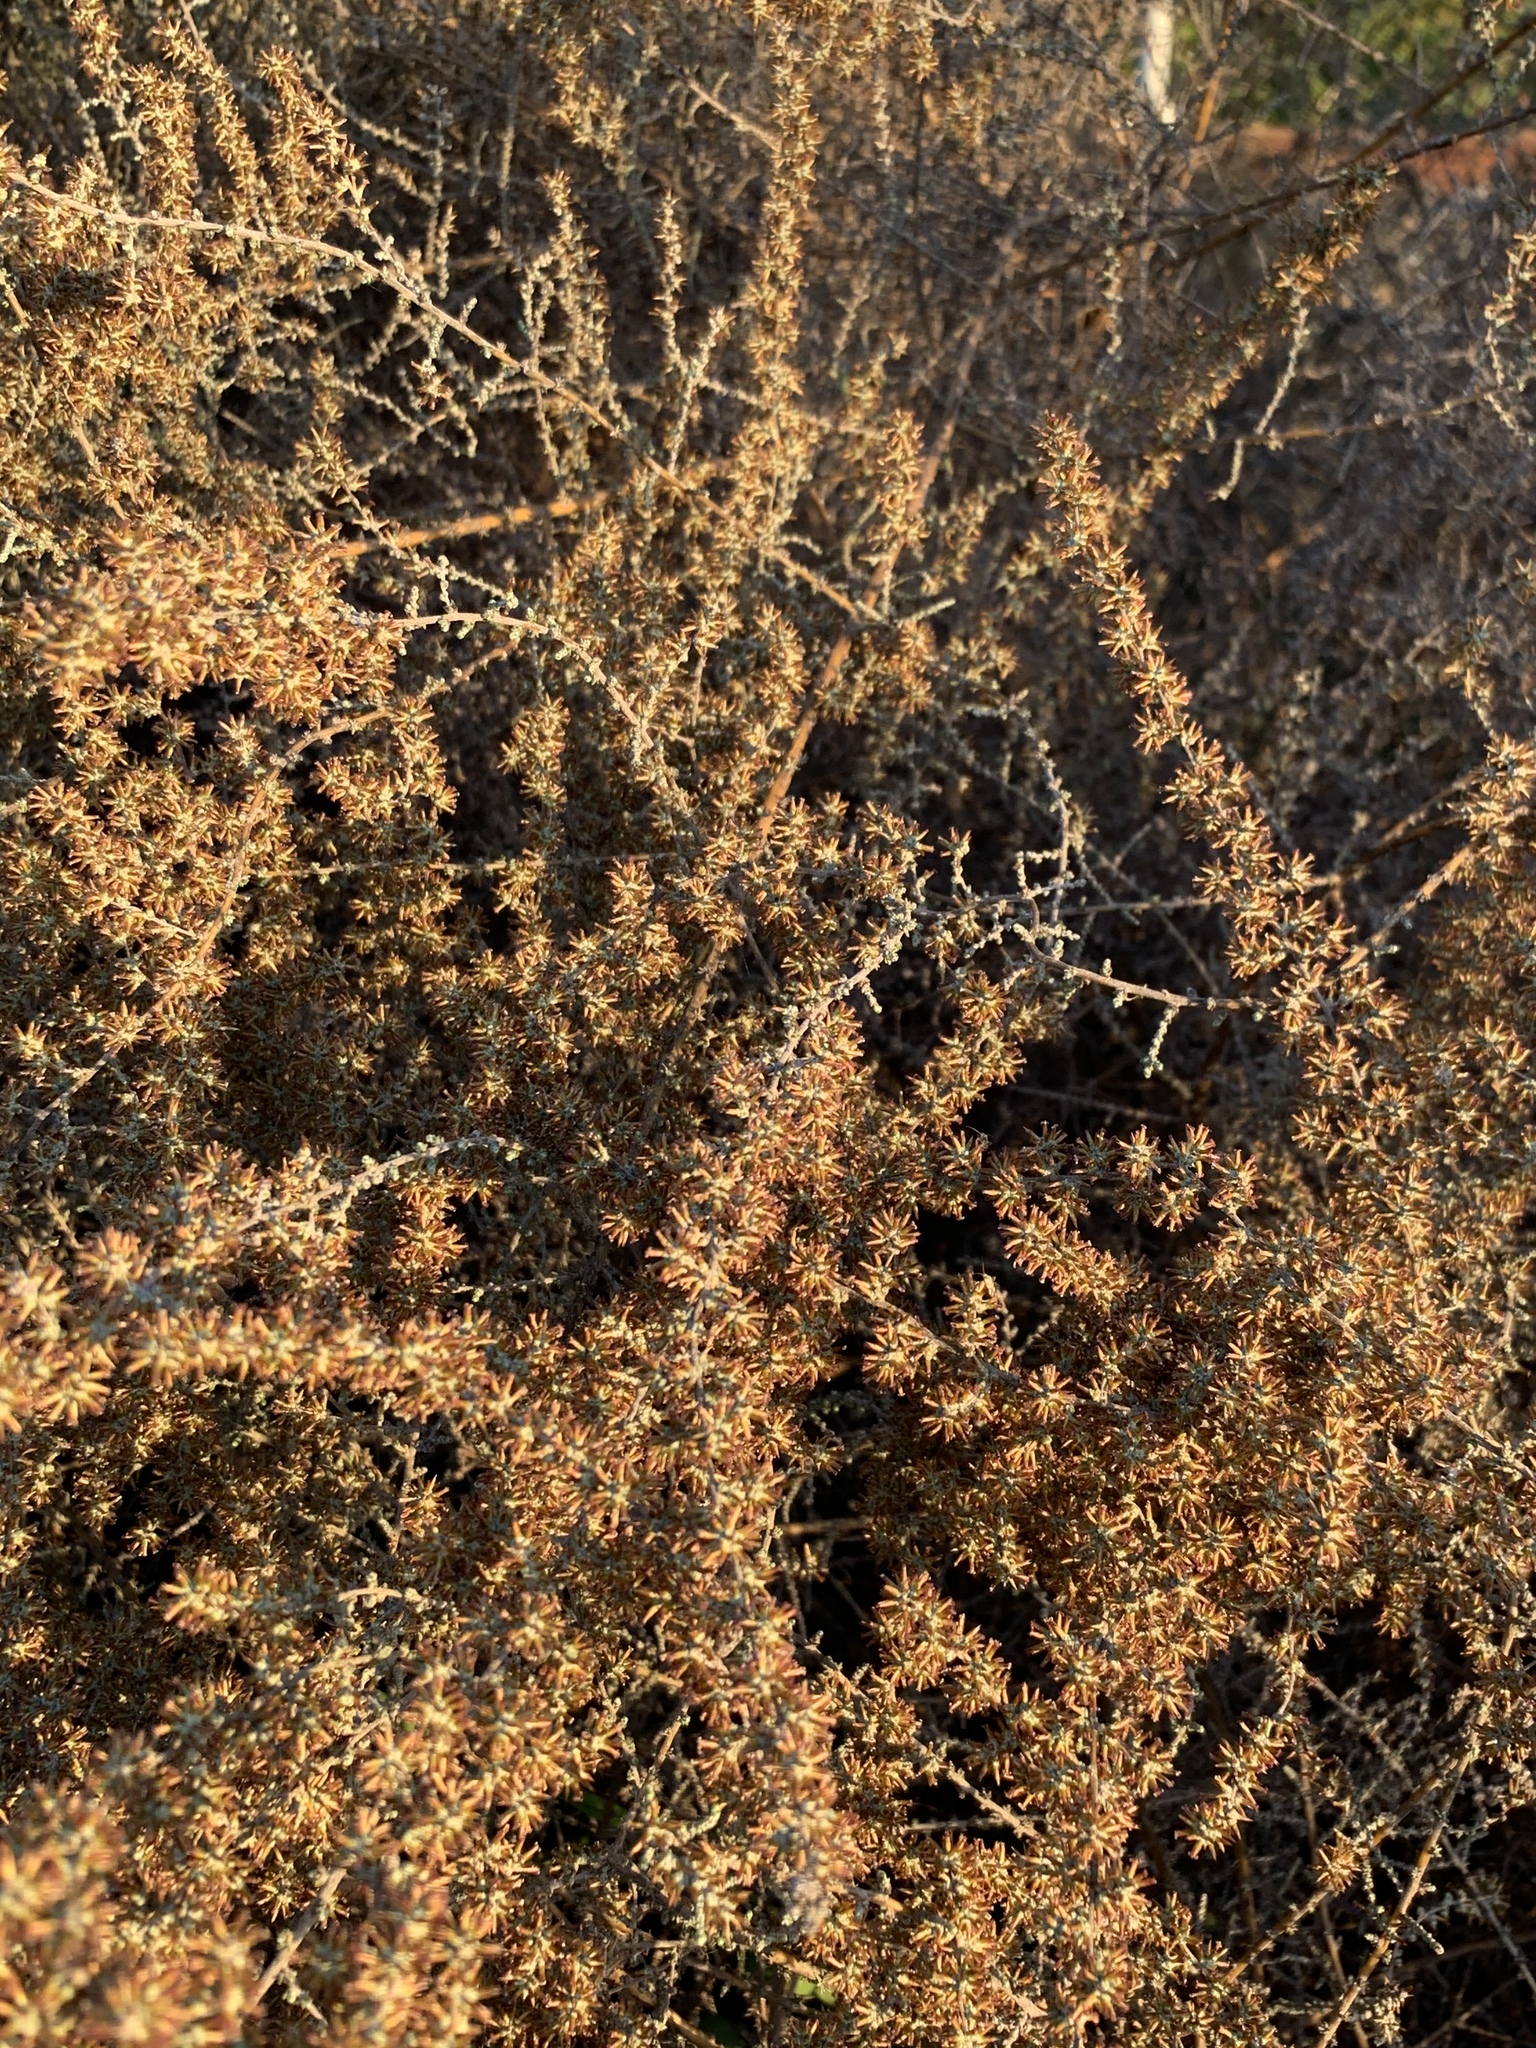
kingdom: Plantae
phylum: Tracheophyta
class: Magnoliopsida
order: Asterales
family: Asteraceae
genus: Seriphium
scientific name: Seriphium plumosum
